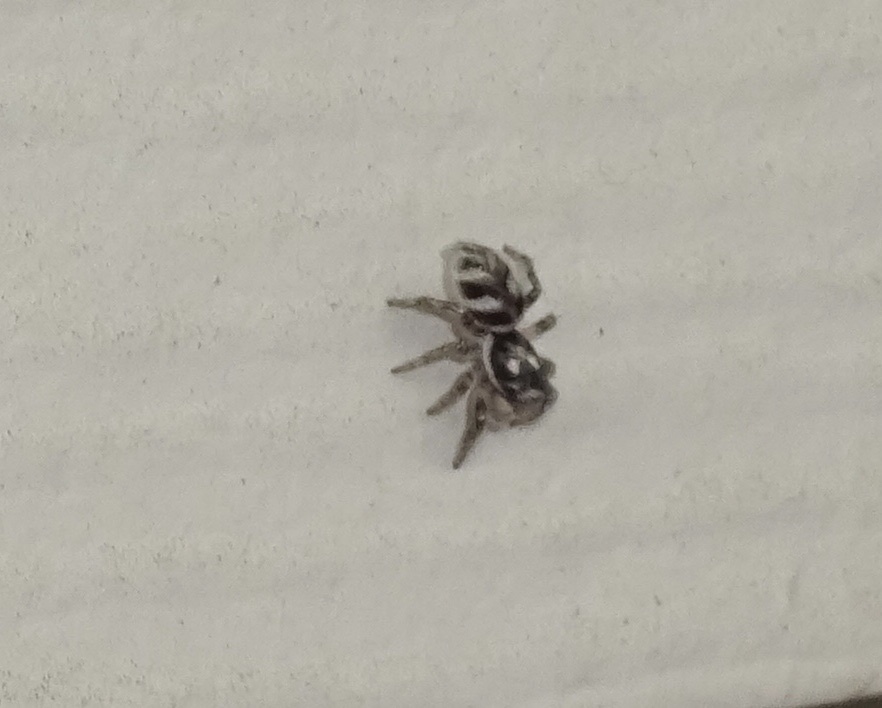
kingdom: Animalia
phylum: Arthropoda
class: Arachnida
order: Araneae
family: Salticidae
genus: Salticus
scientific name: Salticus scenicus
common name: Zebra jumper
